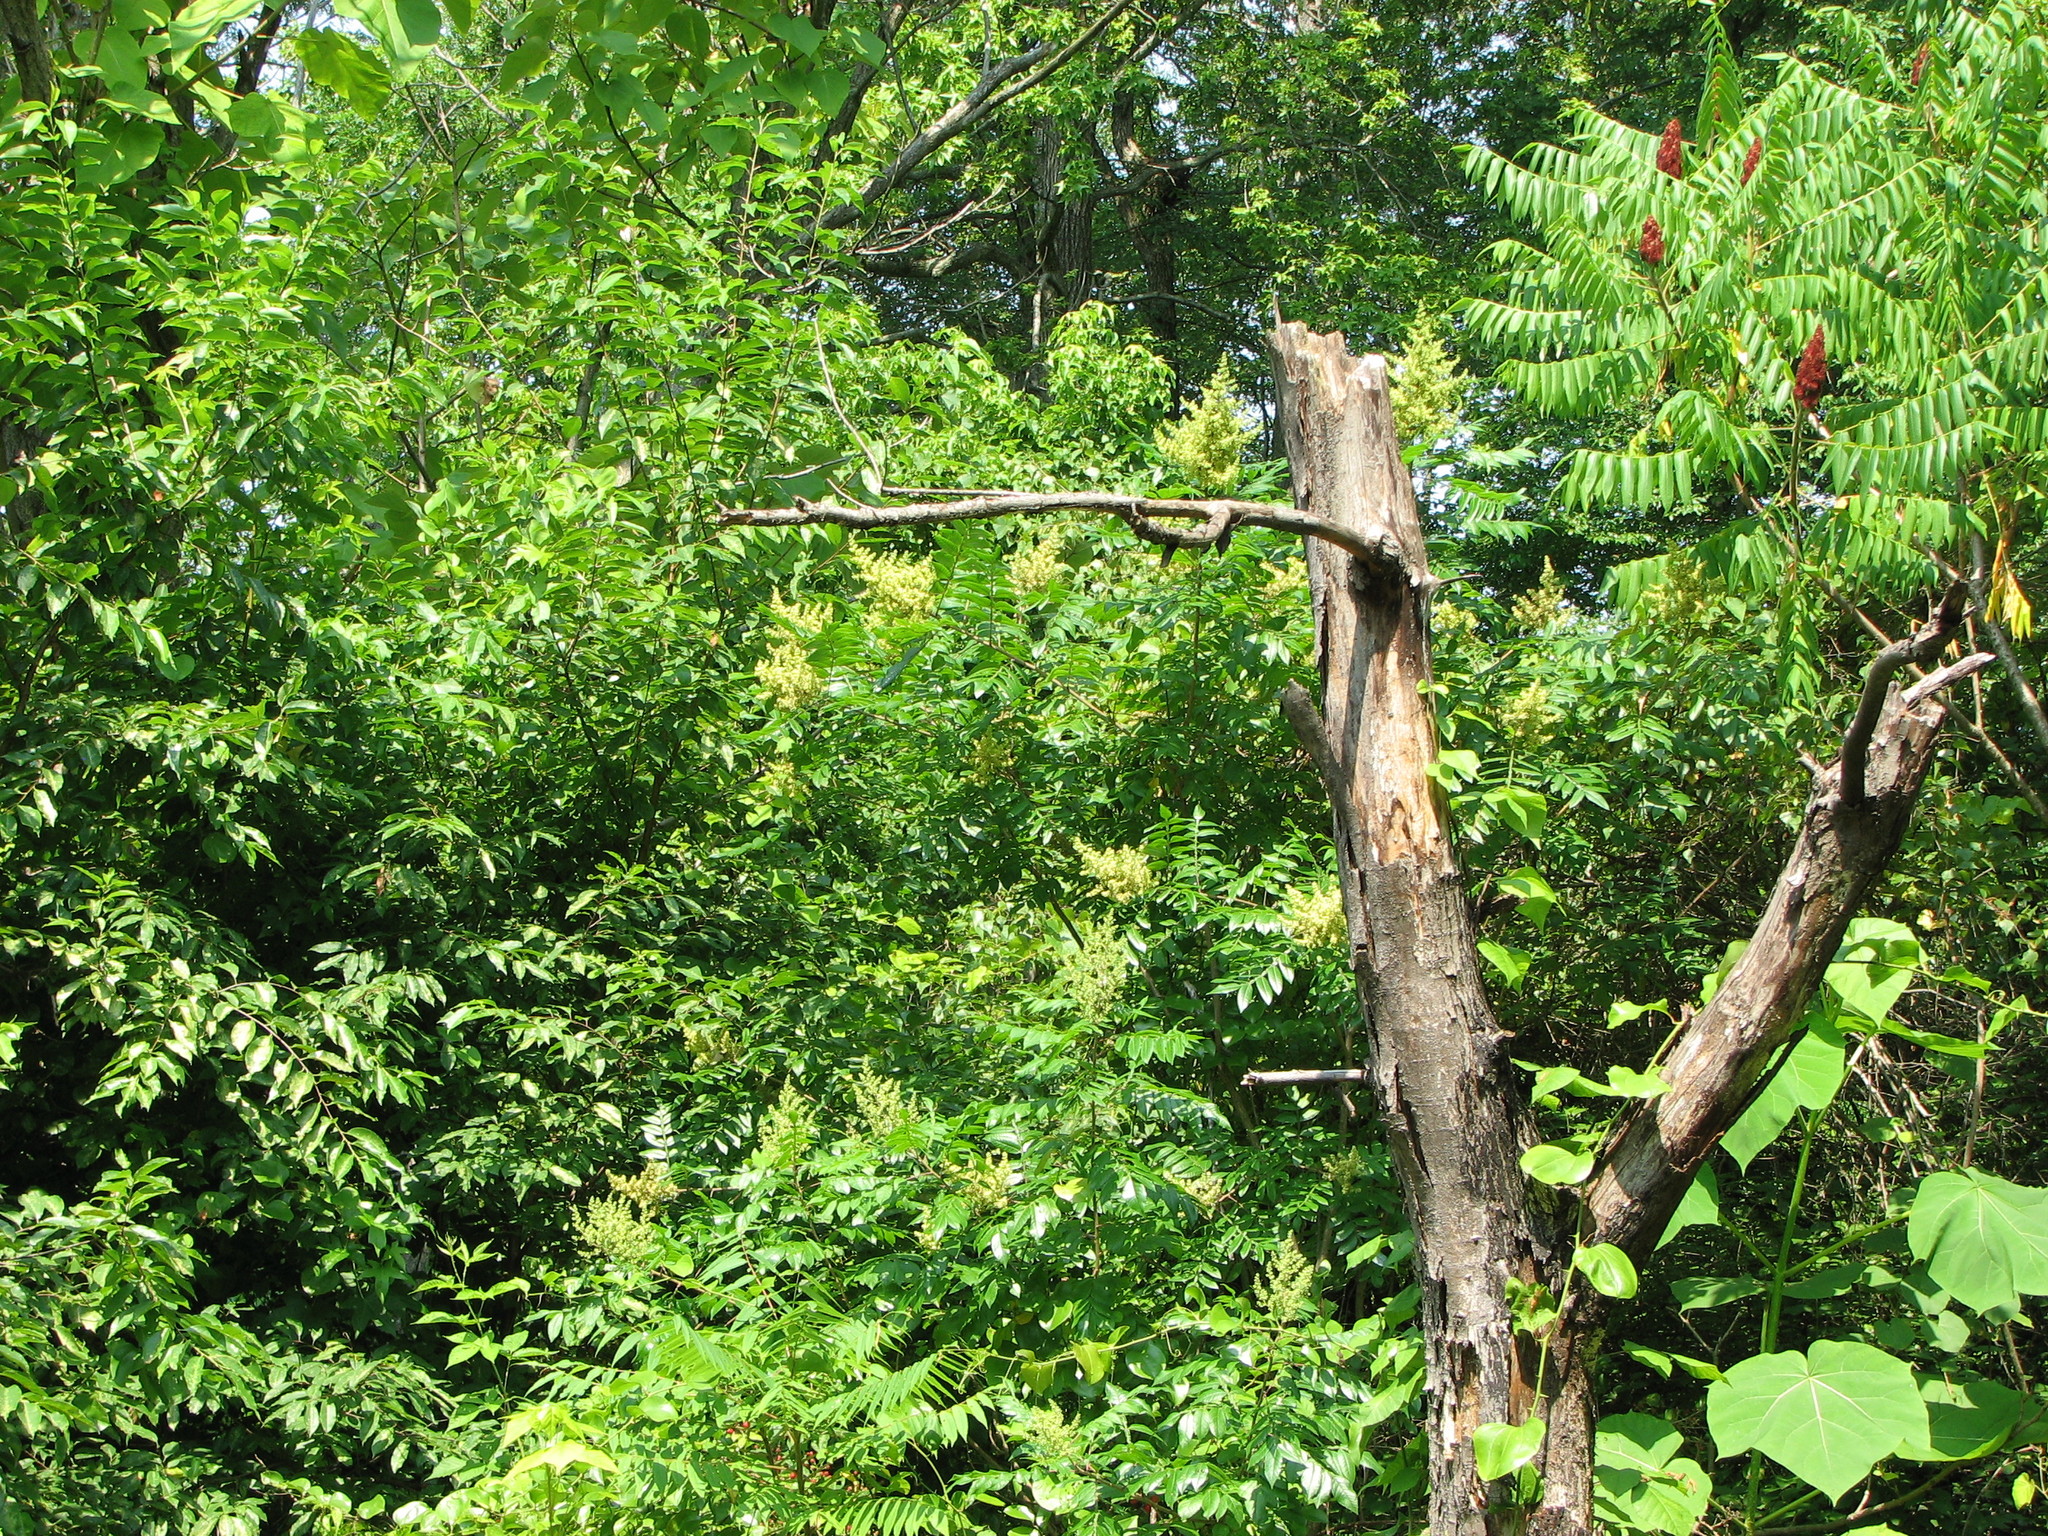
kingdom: Plantae
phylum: Tracheophyta
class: Magnoliopsida
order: Sapindales
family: Anacardiaceae
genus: Rhus
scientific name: Rhus copallina
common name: Shining sumac
